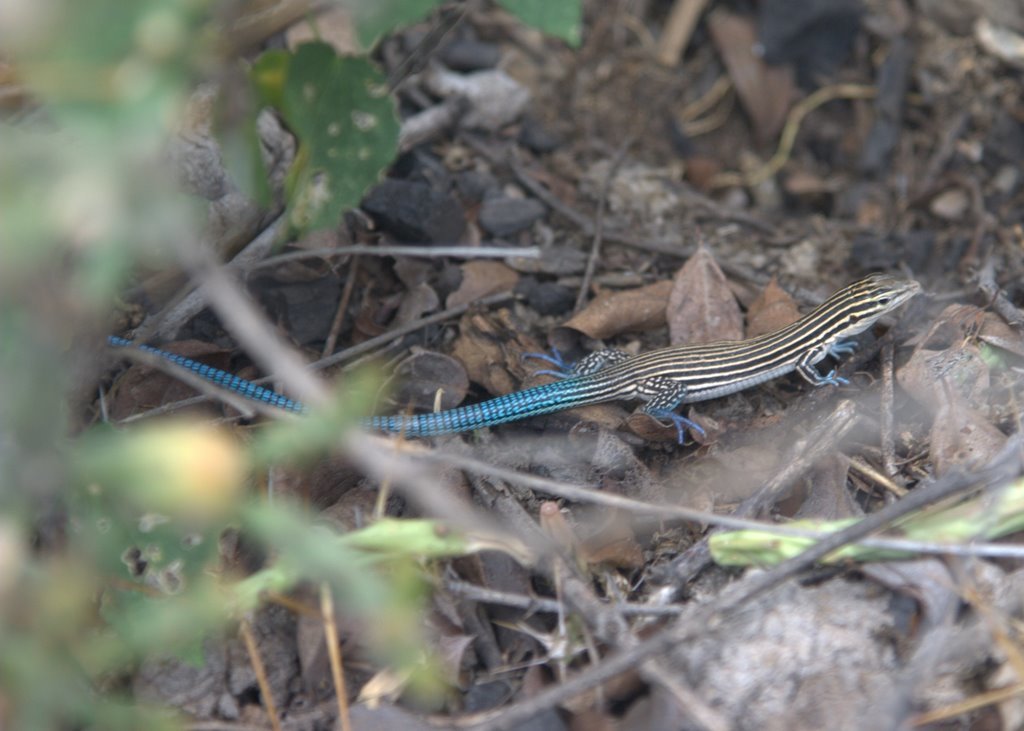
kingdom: Animalia
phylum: Chordata
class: Squamata
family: Teiidae
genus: Pholidoscelis
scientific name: Pholidoscelis lineolatus
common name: Pigmy blue-tailed ameiva
